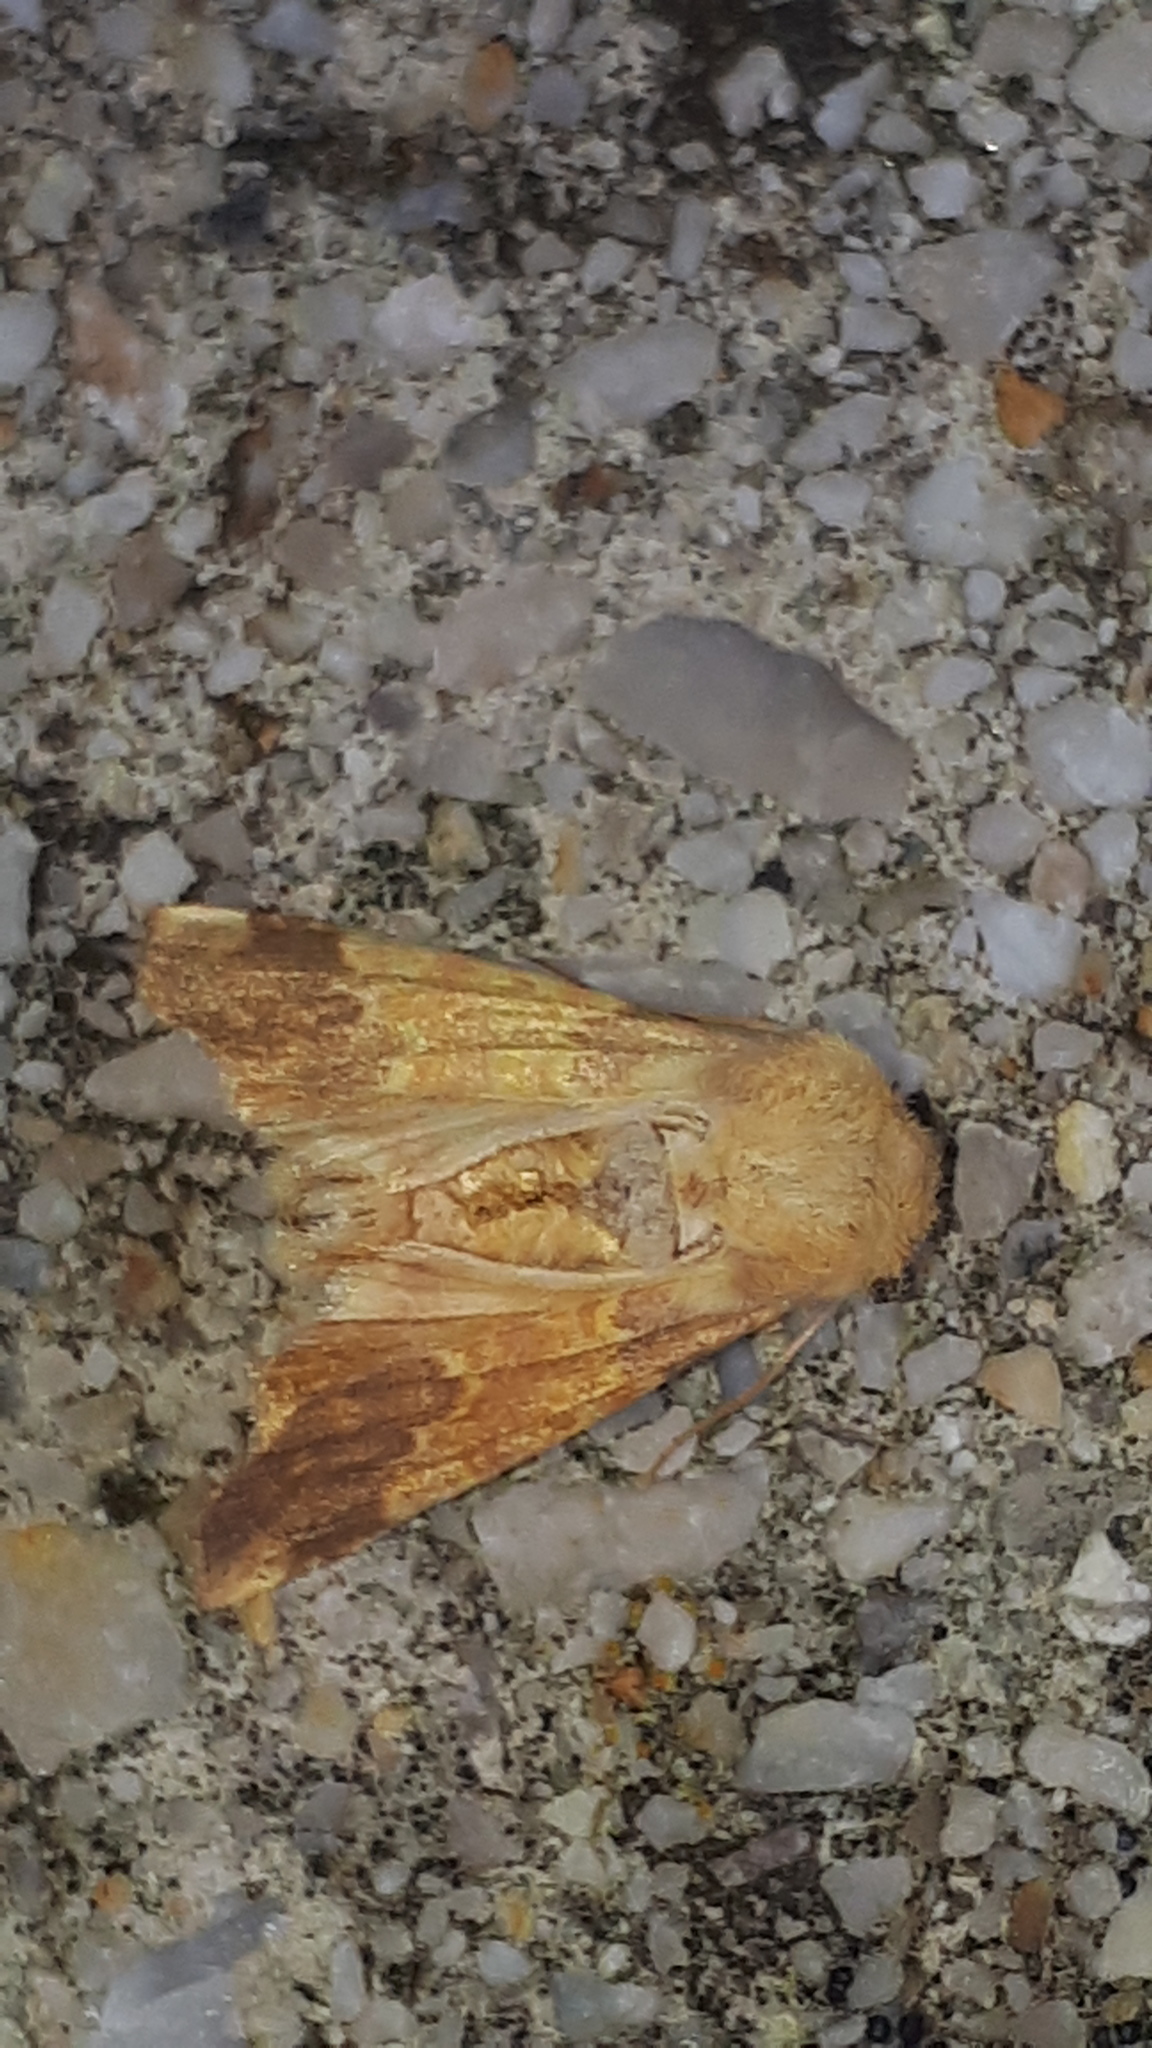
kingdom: Animalia
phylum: Arthropoda
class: Insecta
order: Lepidoptera
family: Noctuidae
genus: Tiliacea
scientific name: Tiliacea aurago
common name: Barred sallow
